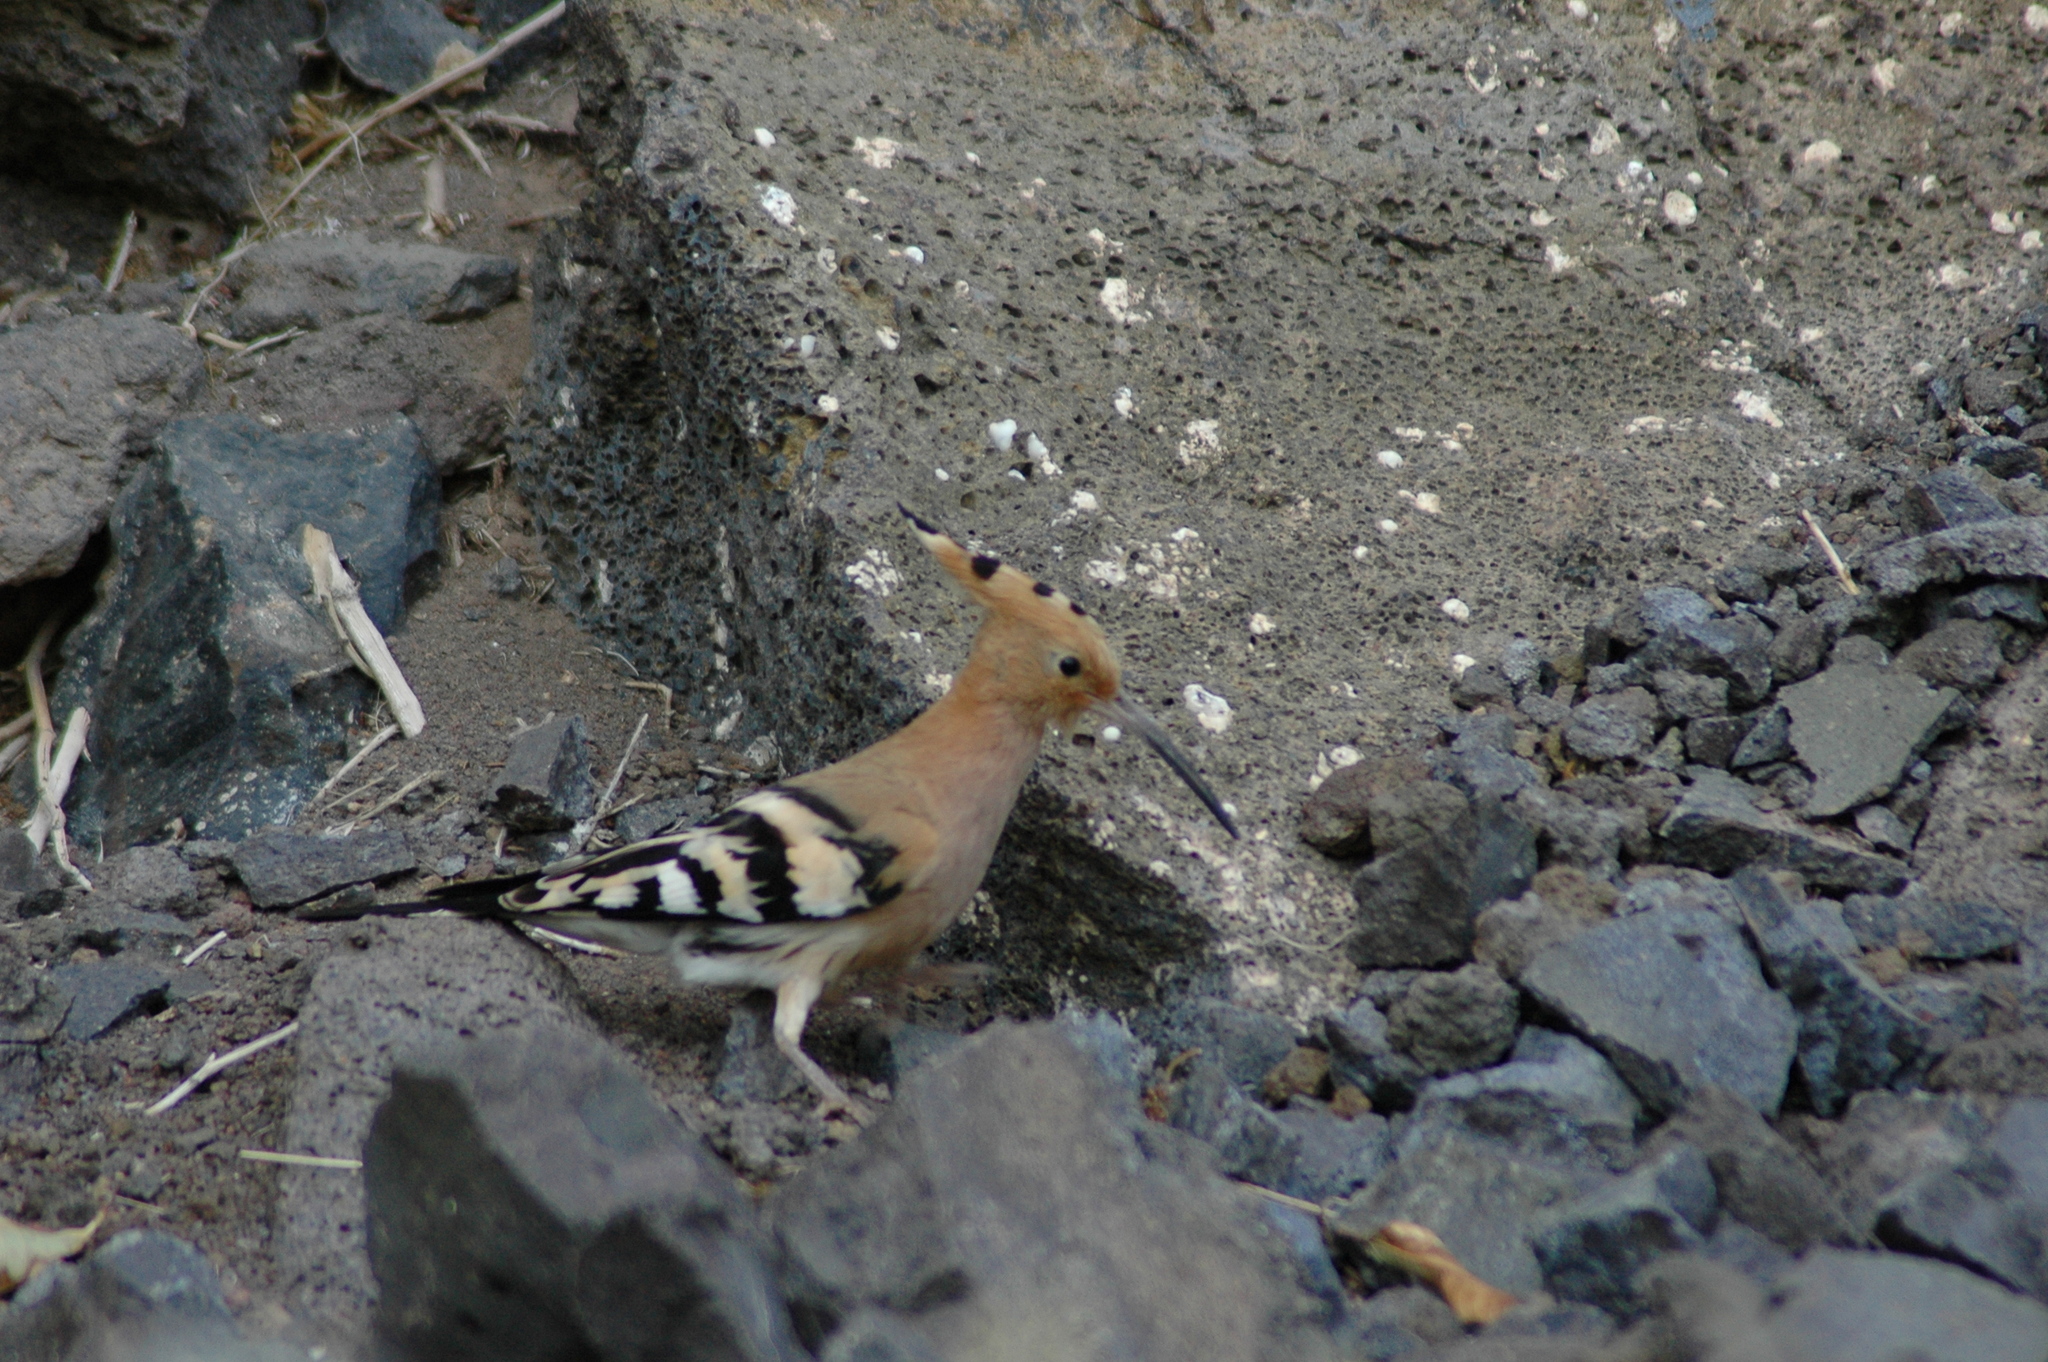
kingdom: Animalia
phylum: Chordata
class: Aves
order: Bucerotiformes
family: Upupidae
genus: Upupa
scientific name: Upupa epops
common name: Eurasian hoopoe
